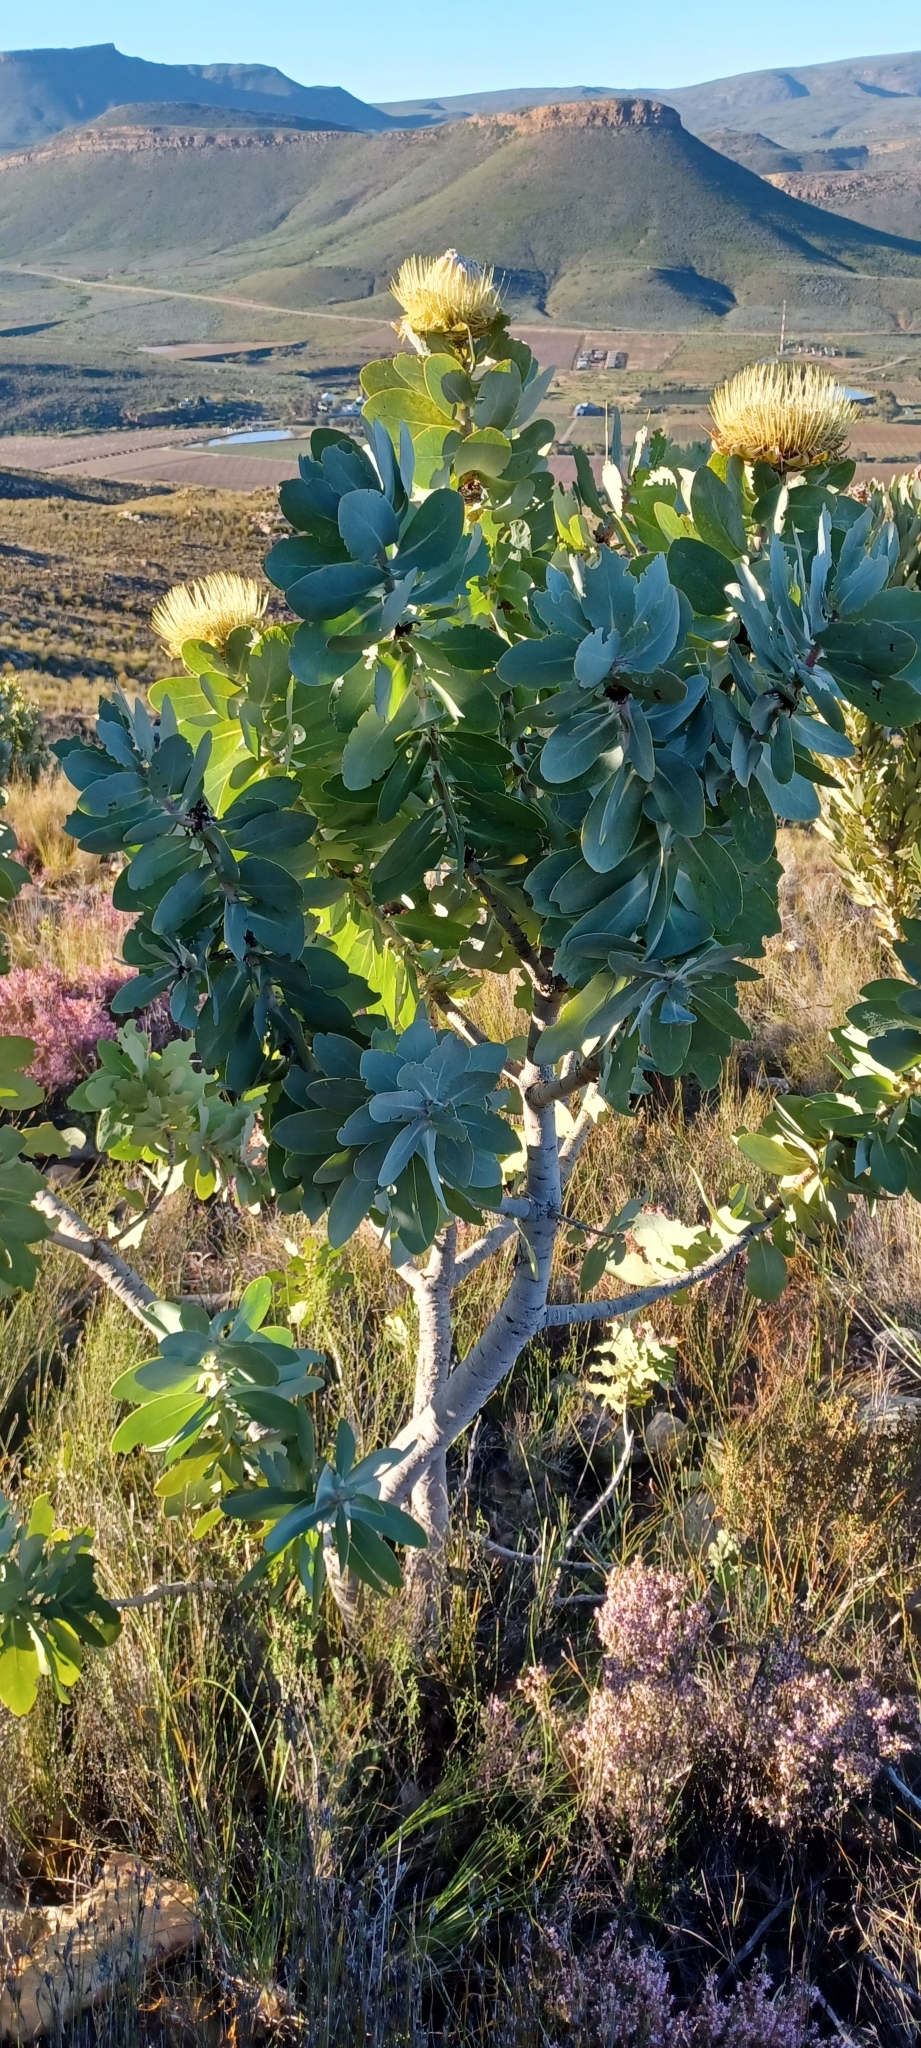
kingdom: Plantae
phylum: Tracheophyta
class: Magnoliopsida
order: Proteales
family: Proteaceae
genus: Protea
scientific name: Protea nitida
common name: Tree protea
